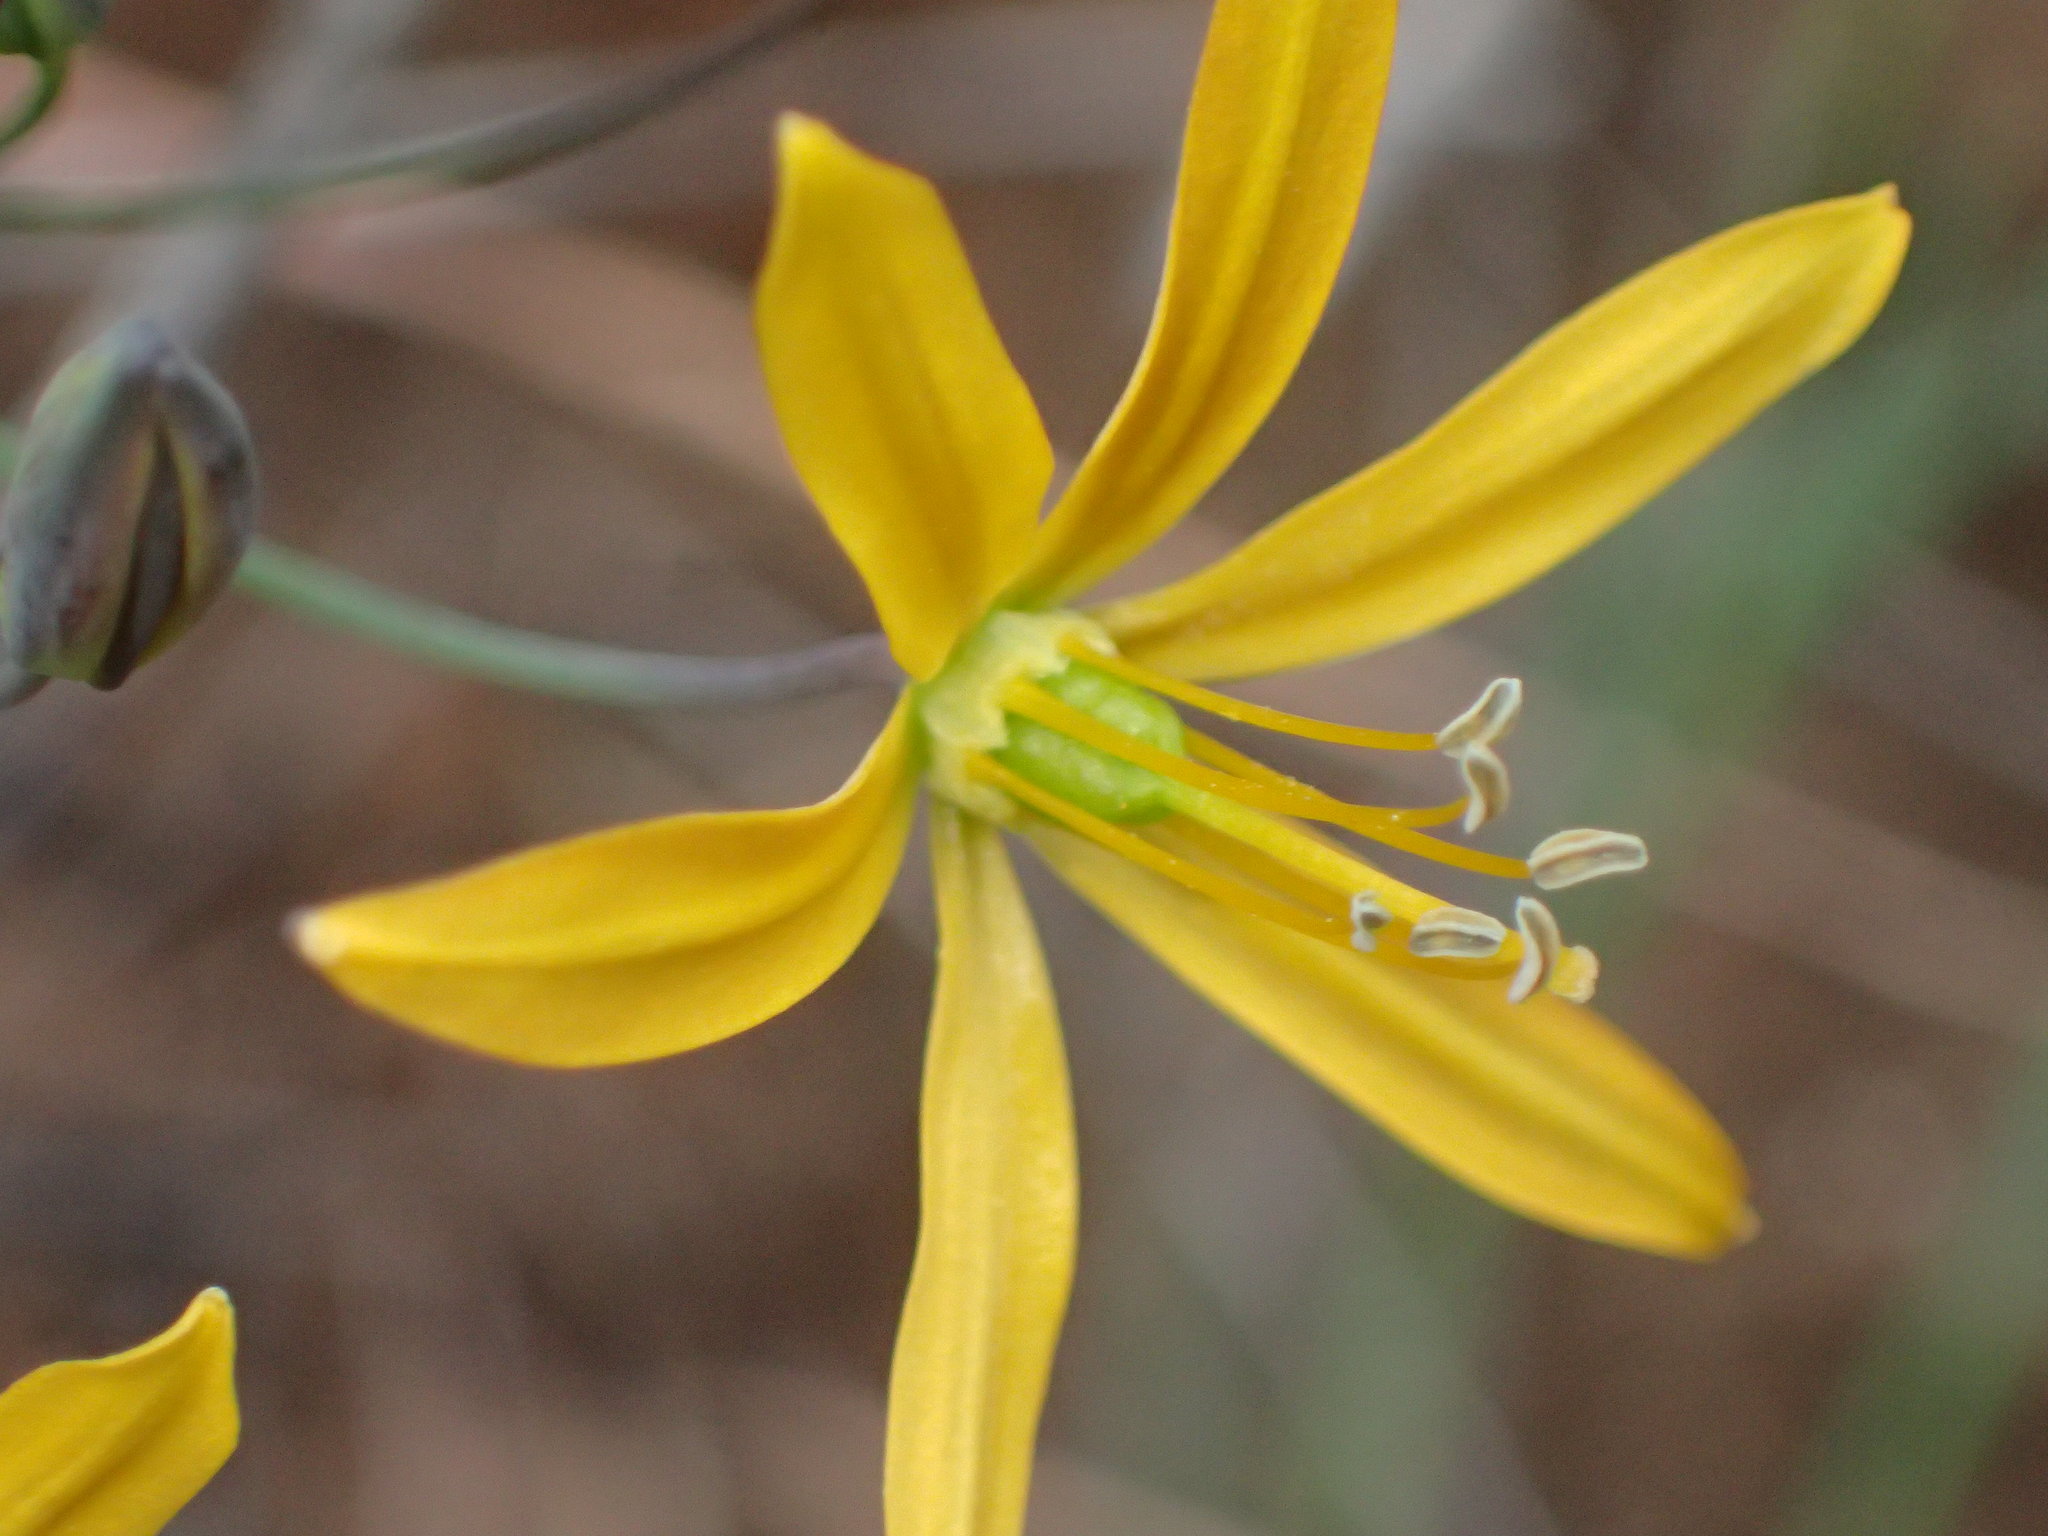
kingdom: Plantae
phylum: Tracheophyta
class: Liliopsida
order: Asparagales
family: Asparagaceae
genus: Bloomeria
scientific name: Bloomeria crocea
